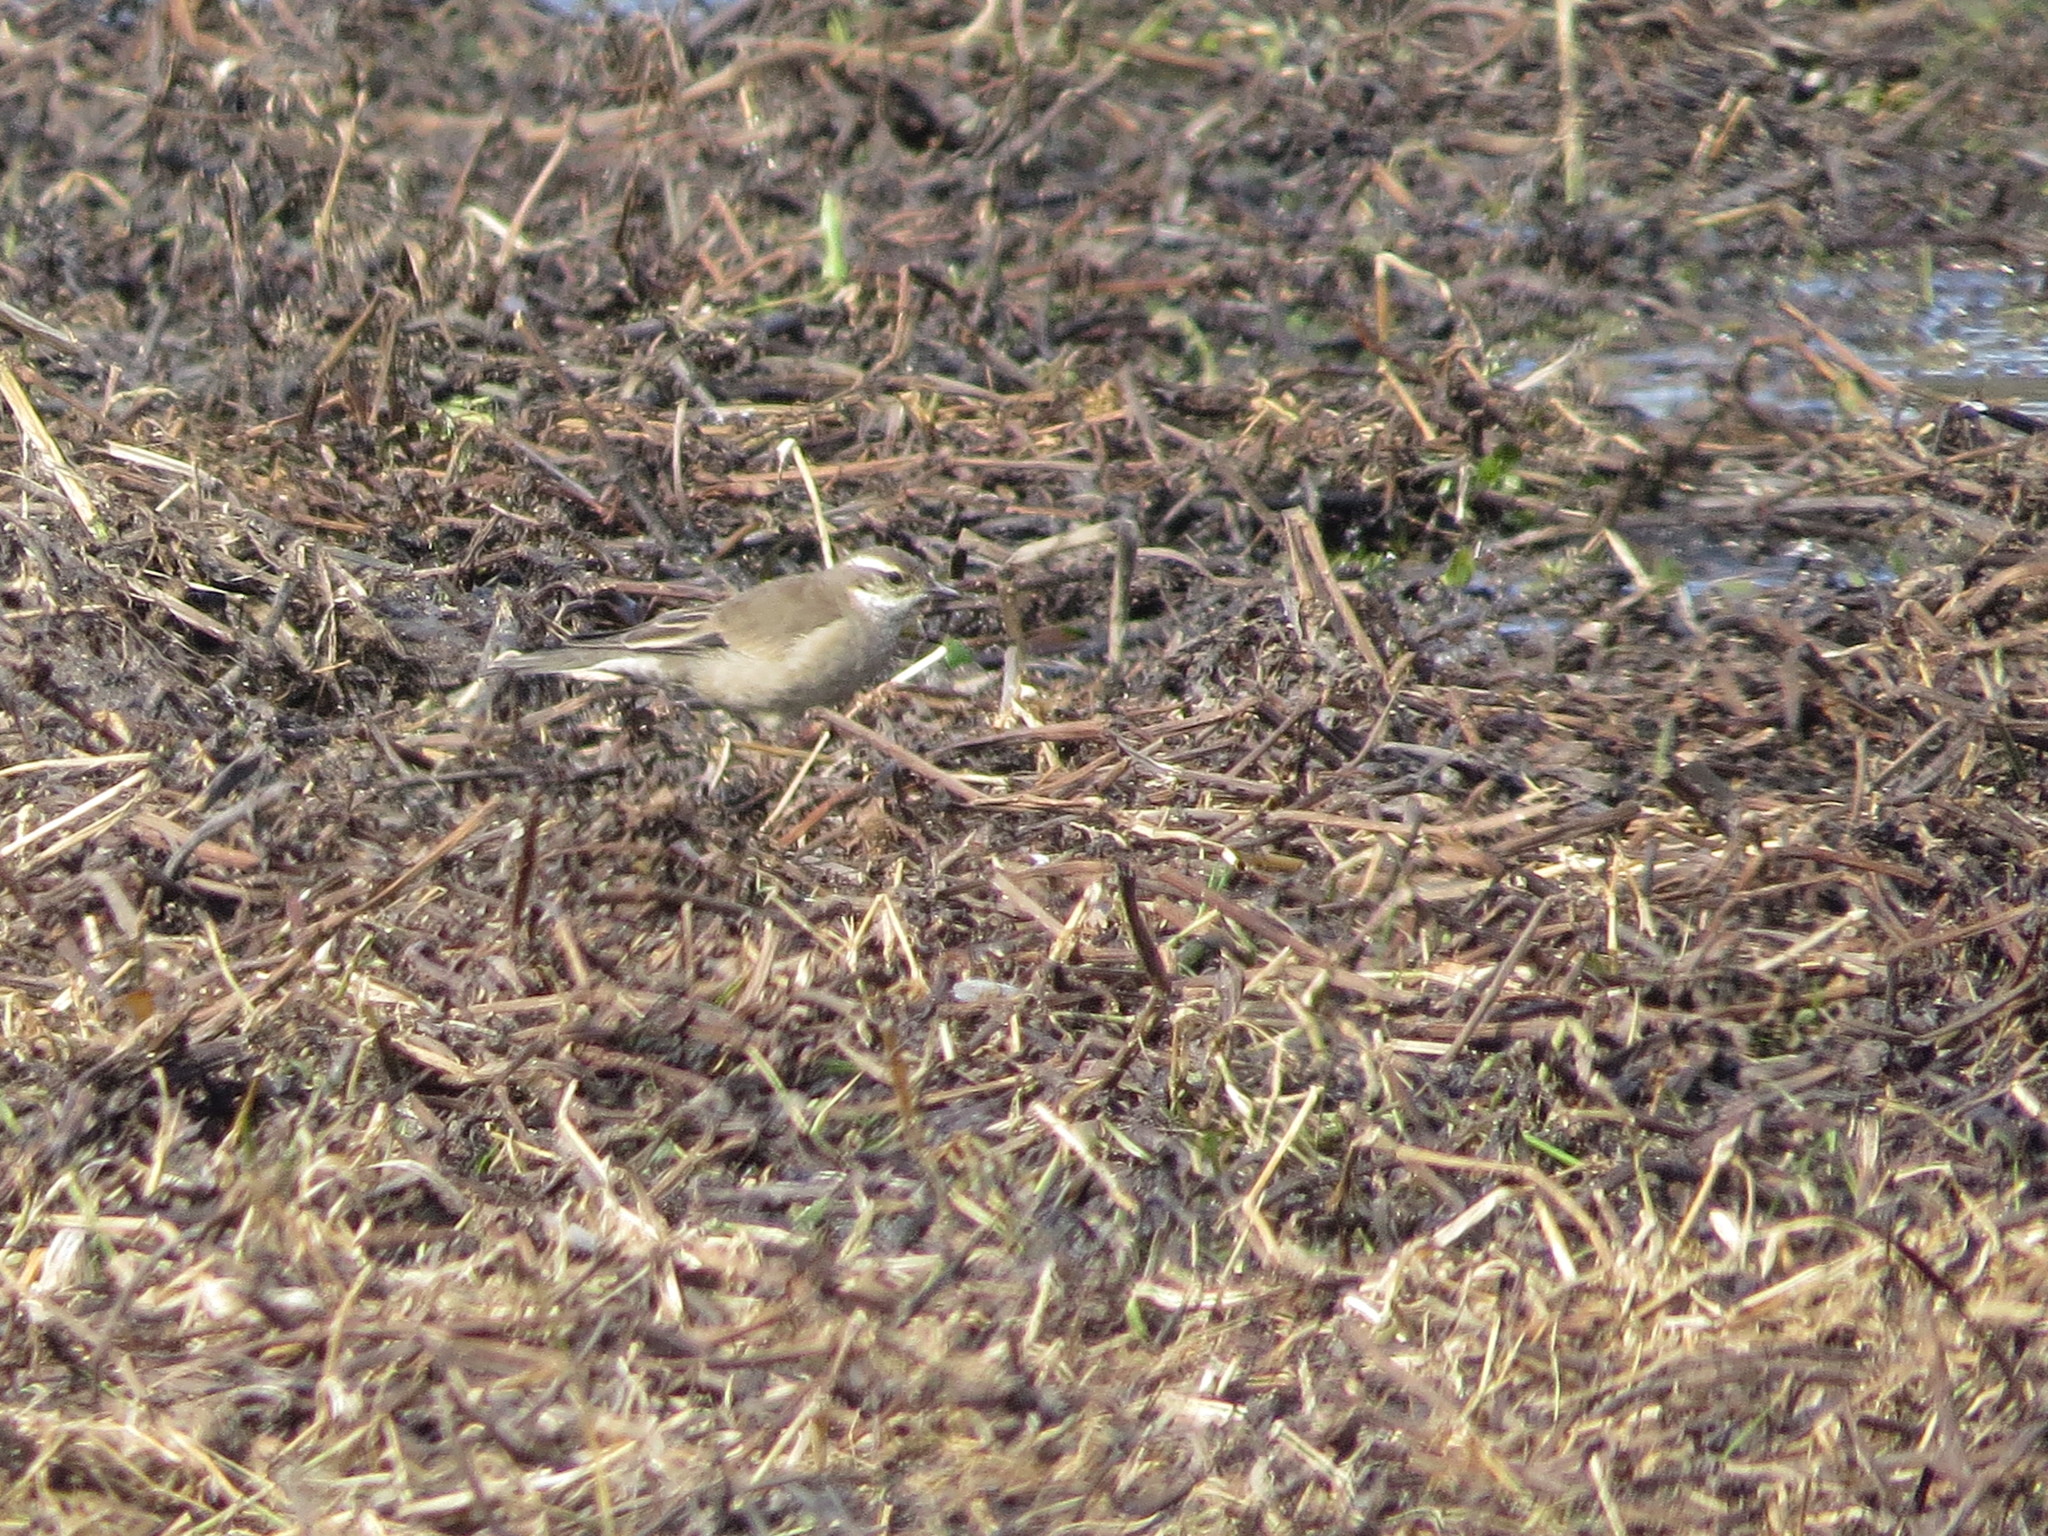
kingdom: Animalia
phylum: Chordata
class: Aves
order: Passeriformes
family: Furnariidae
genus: Cinclodes
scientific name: Cinclodes fuscus
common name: Buff-winged cinclodes
